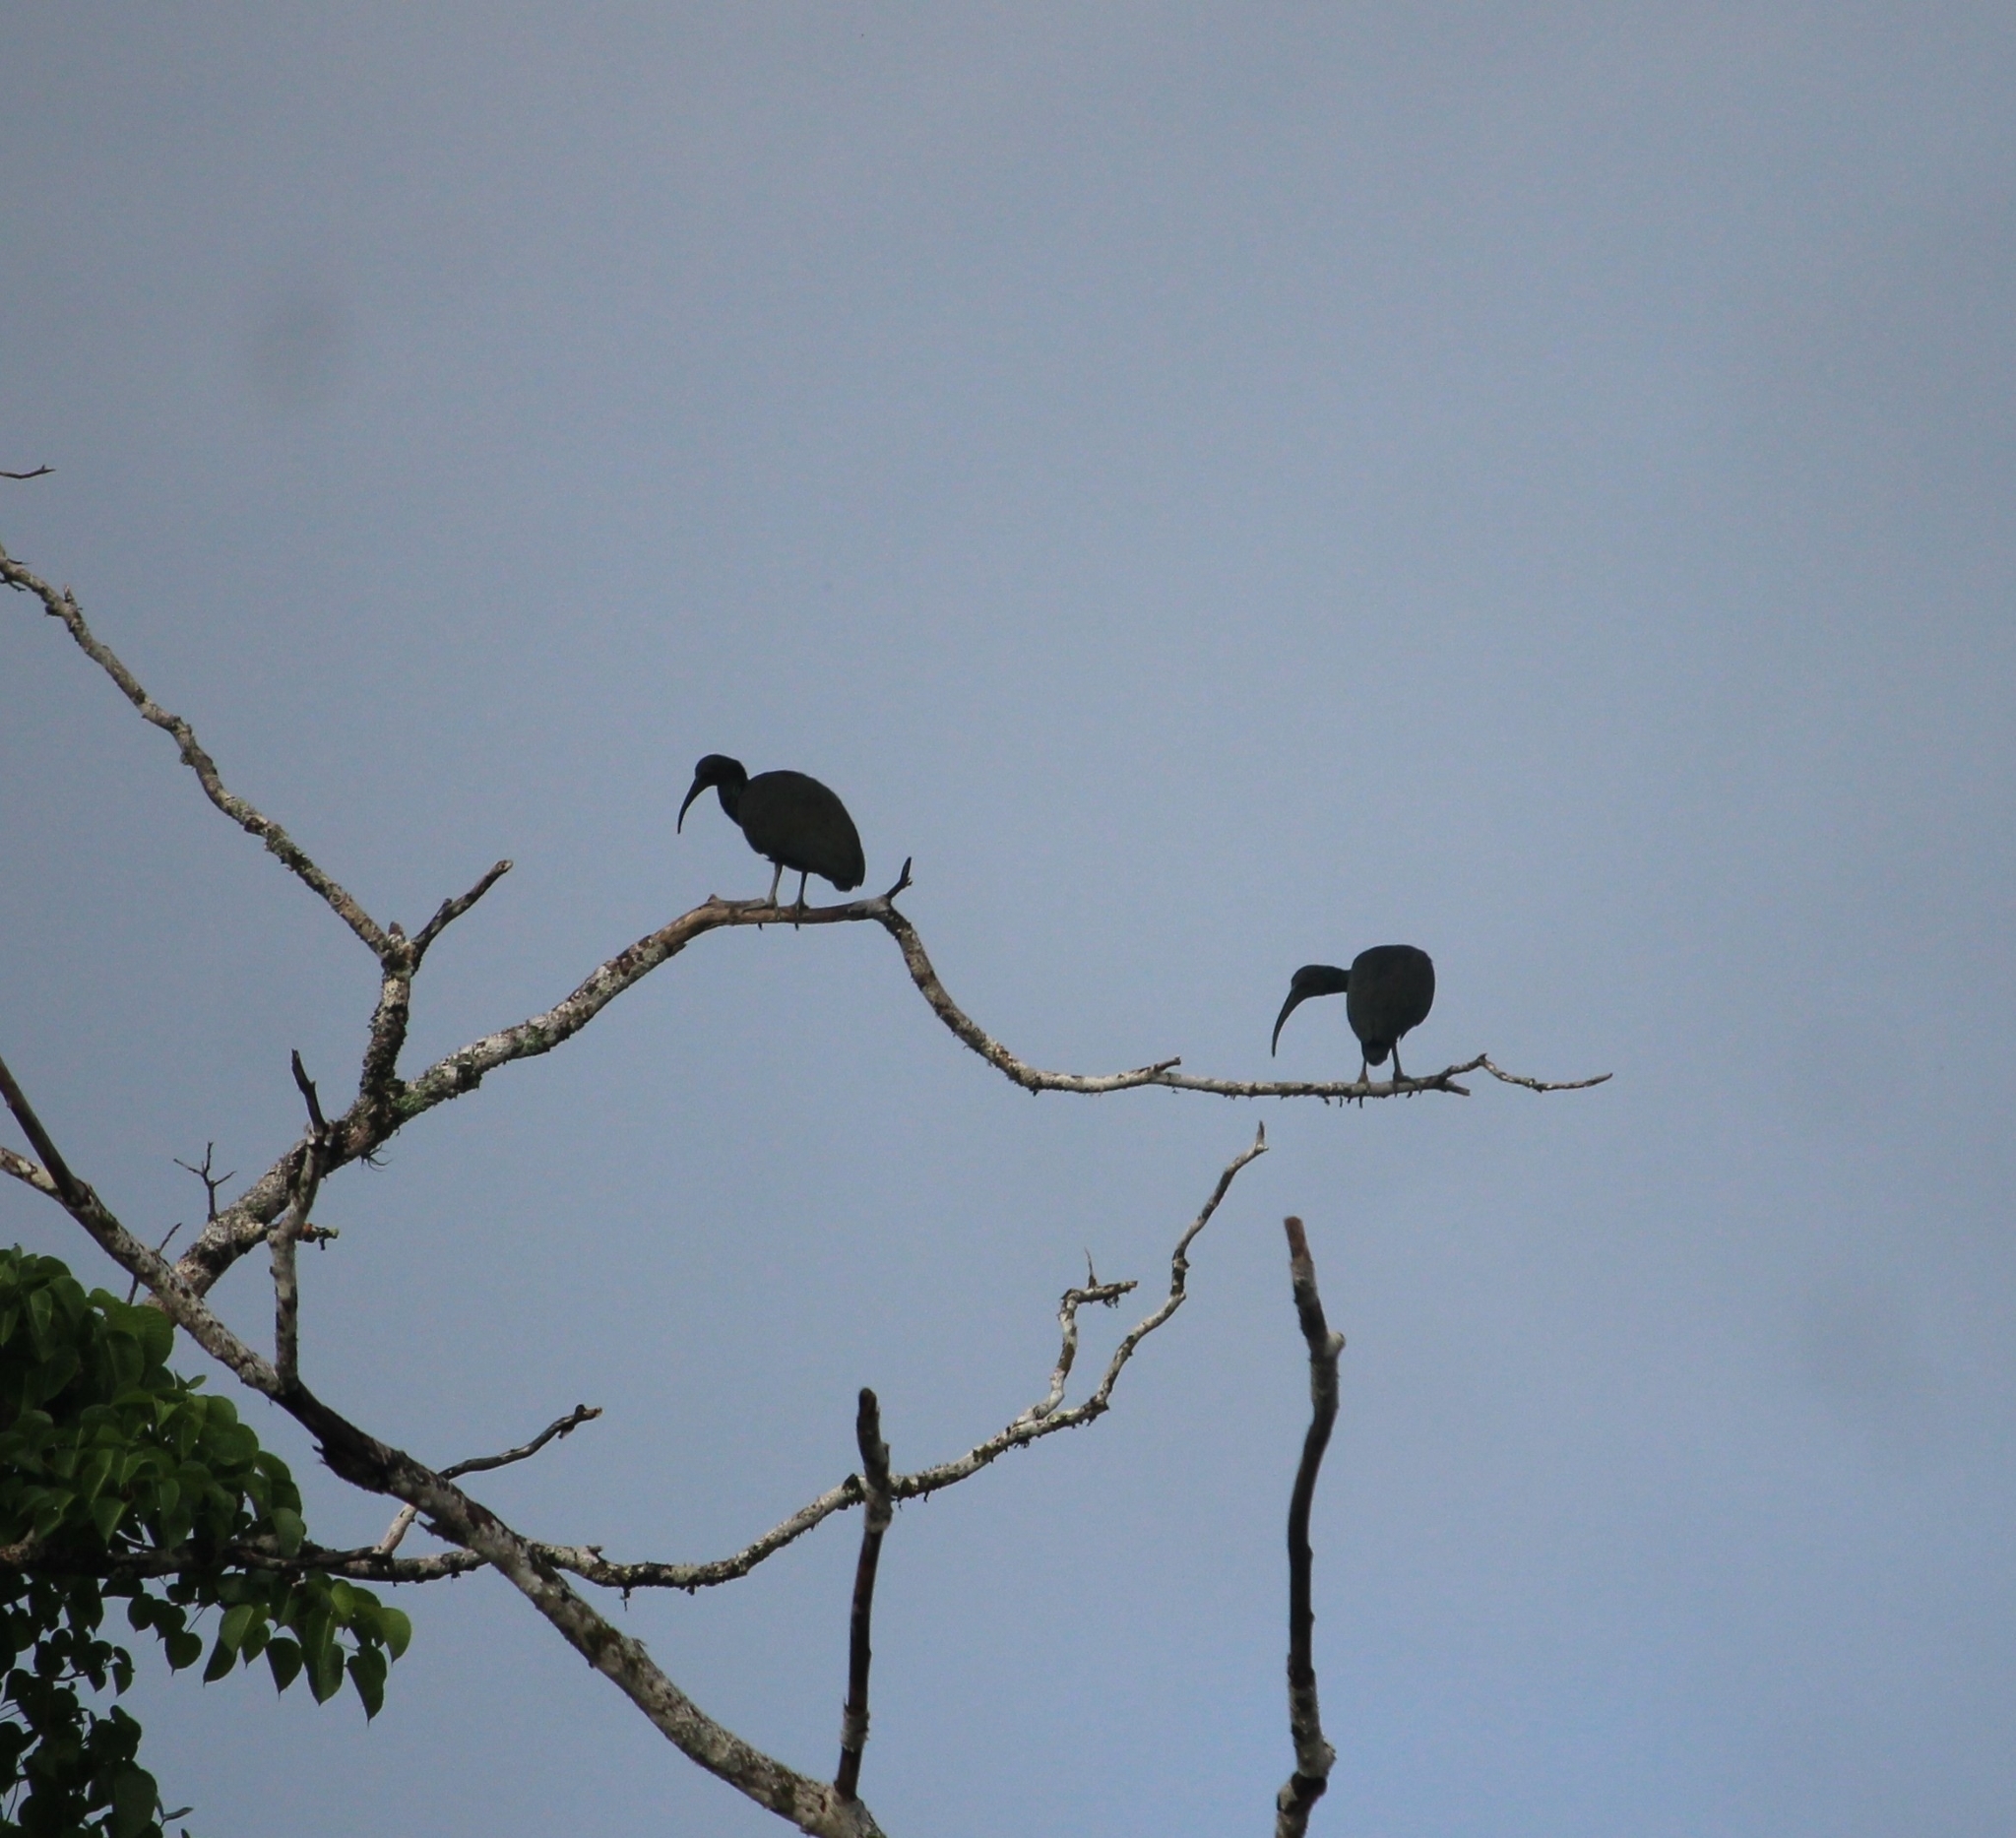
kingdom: Animalia
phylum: Chordata
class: Aves
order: Pelecaniformes
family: Threskiornithidae
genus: Mesembrinibis
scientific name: Mesembrinibis cayennensis
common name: Green ibis
